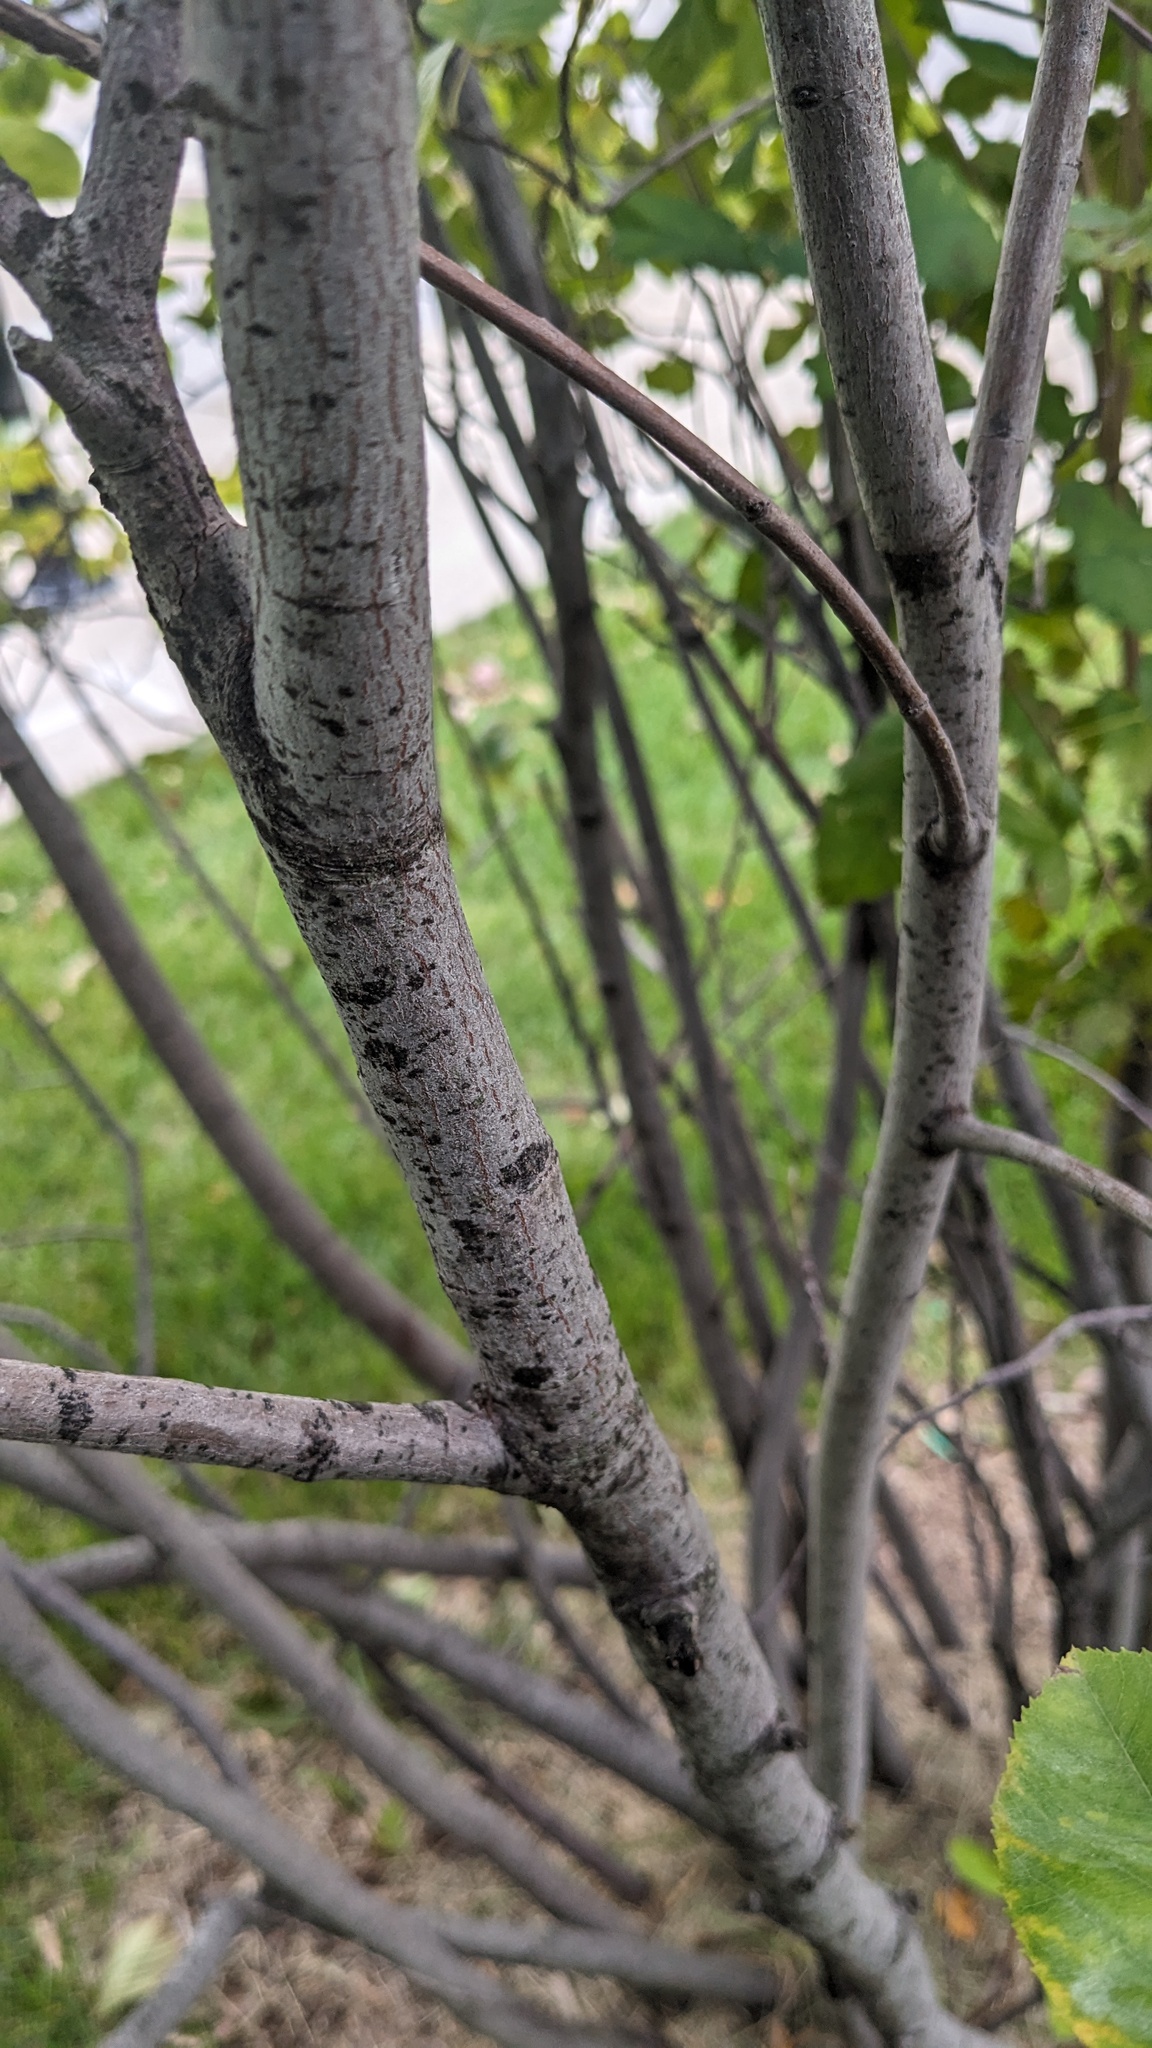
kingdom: Fungi
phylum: Ascomycota
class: Leotiomycetes
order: Helotiales
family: Erysiphaceae
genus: Podosphaera
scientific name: Podosphaera amelanchieris
